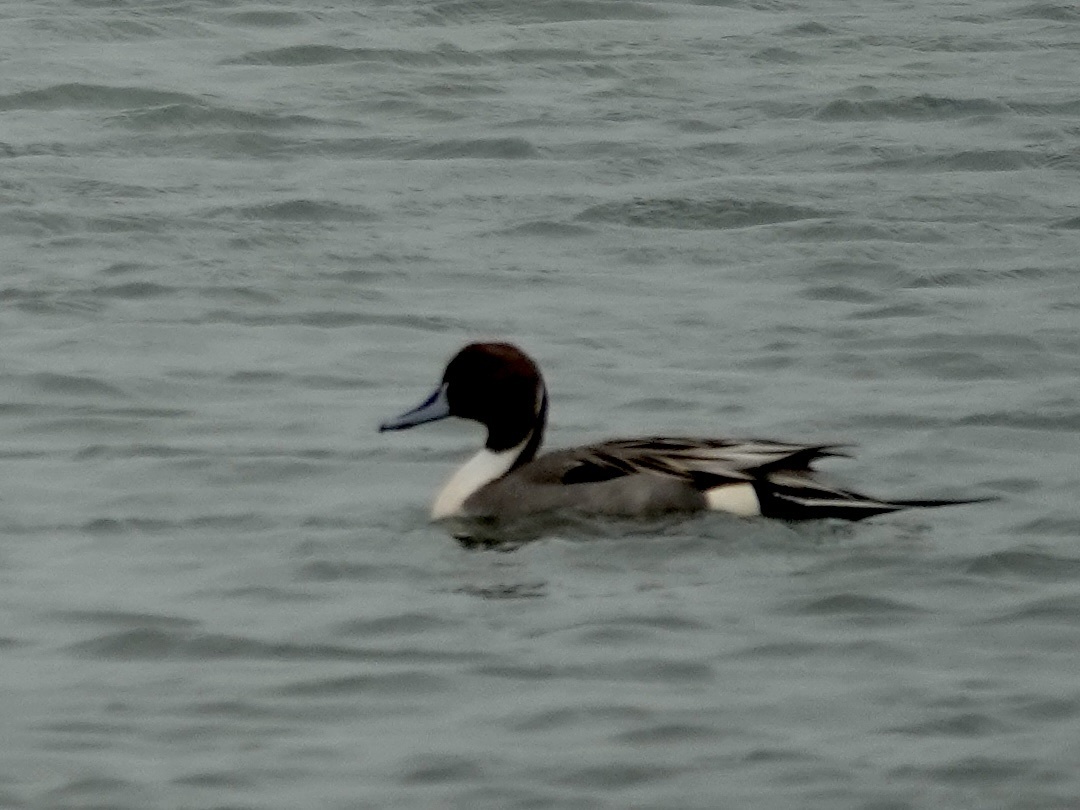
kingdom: Animalia
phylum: Chordata
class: Aves
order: Anseriformes
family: Anatidae
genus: Anas
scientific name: Anas acuta
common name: Northern pintail
